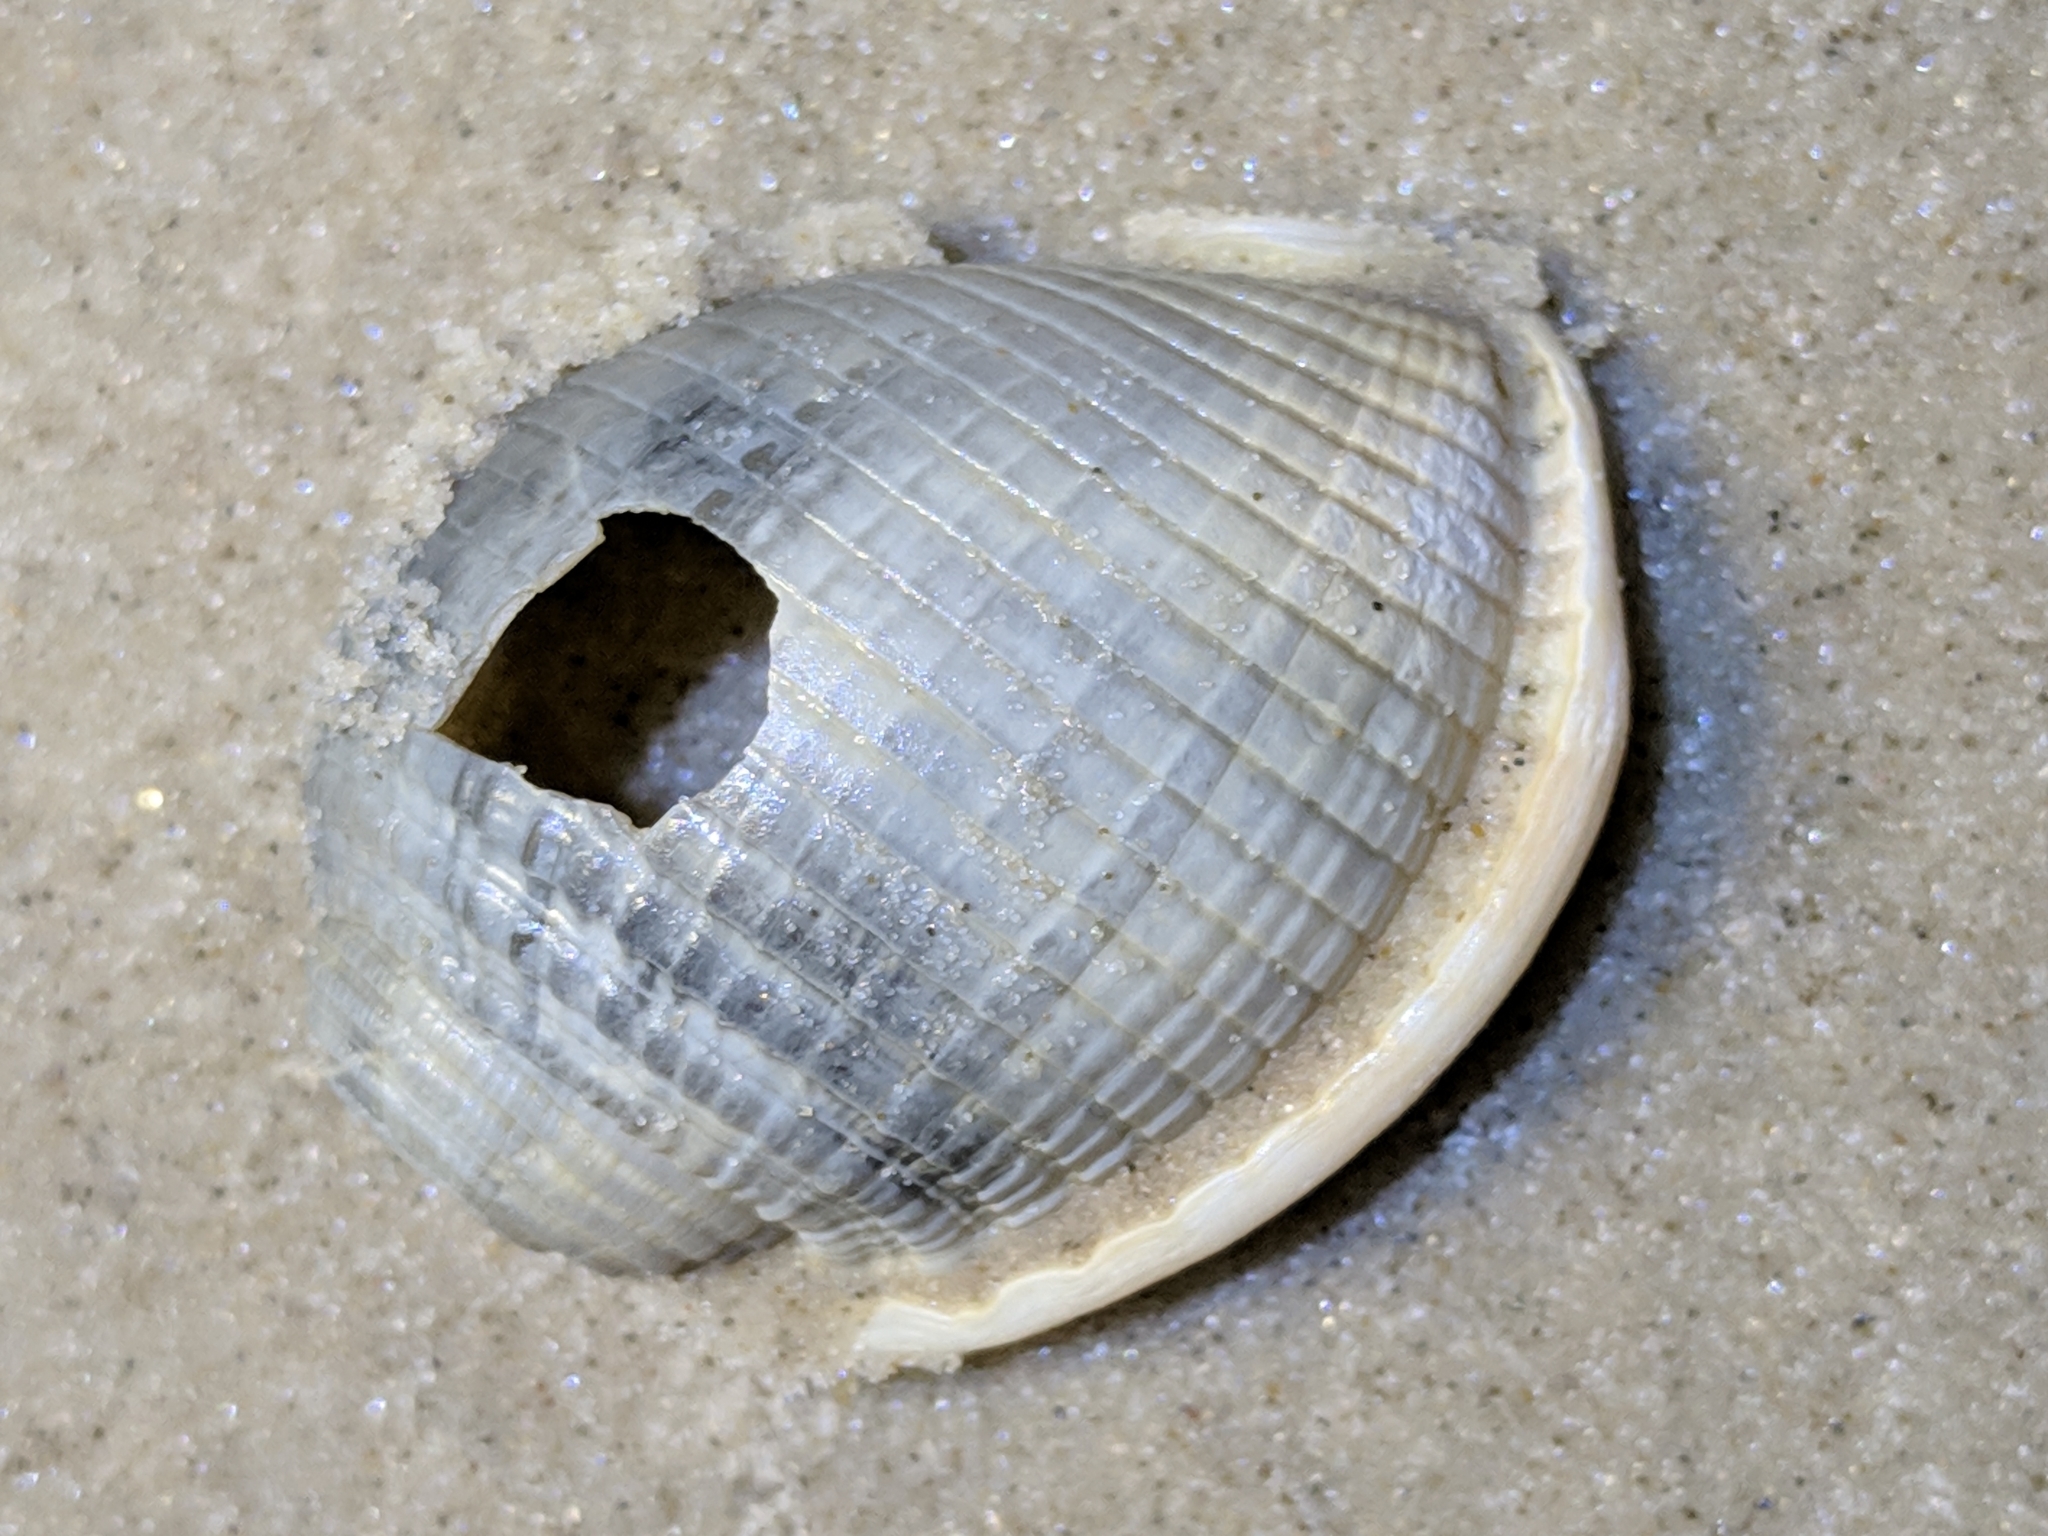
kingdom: Animalia
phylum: Mollusca
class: Gastropoda
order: Littorinimorpha
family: Cassidae
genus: Semicassis
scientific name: Semicassis granulata
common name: Scotch bonnet
